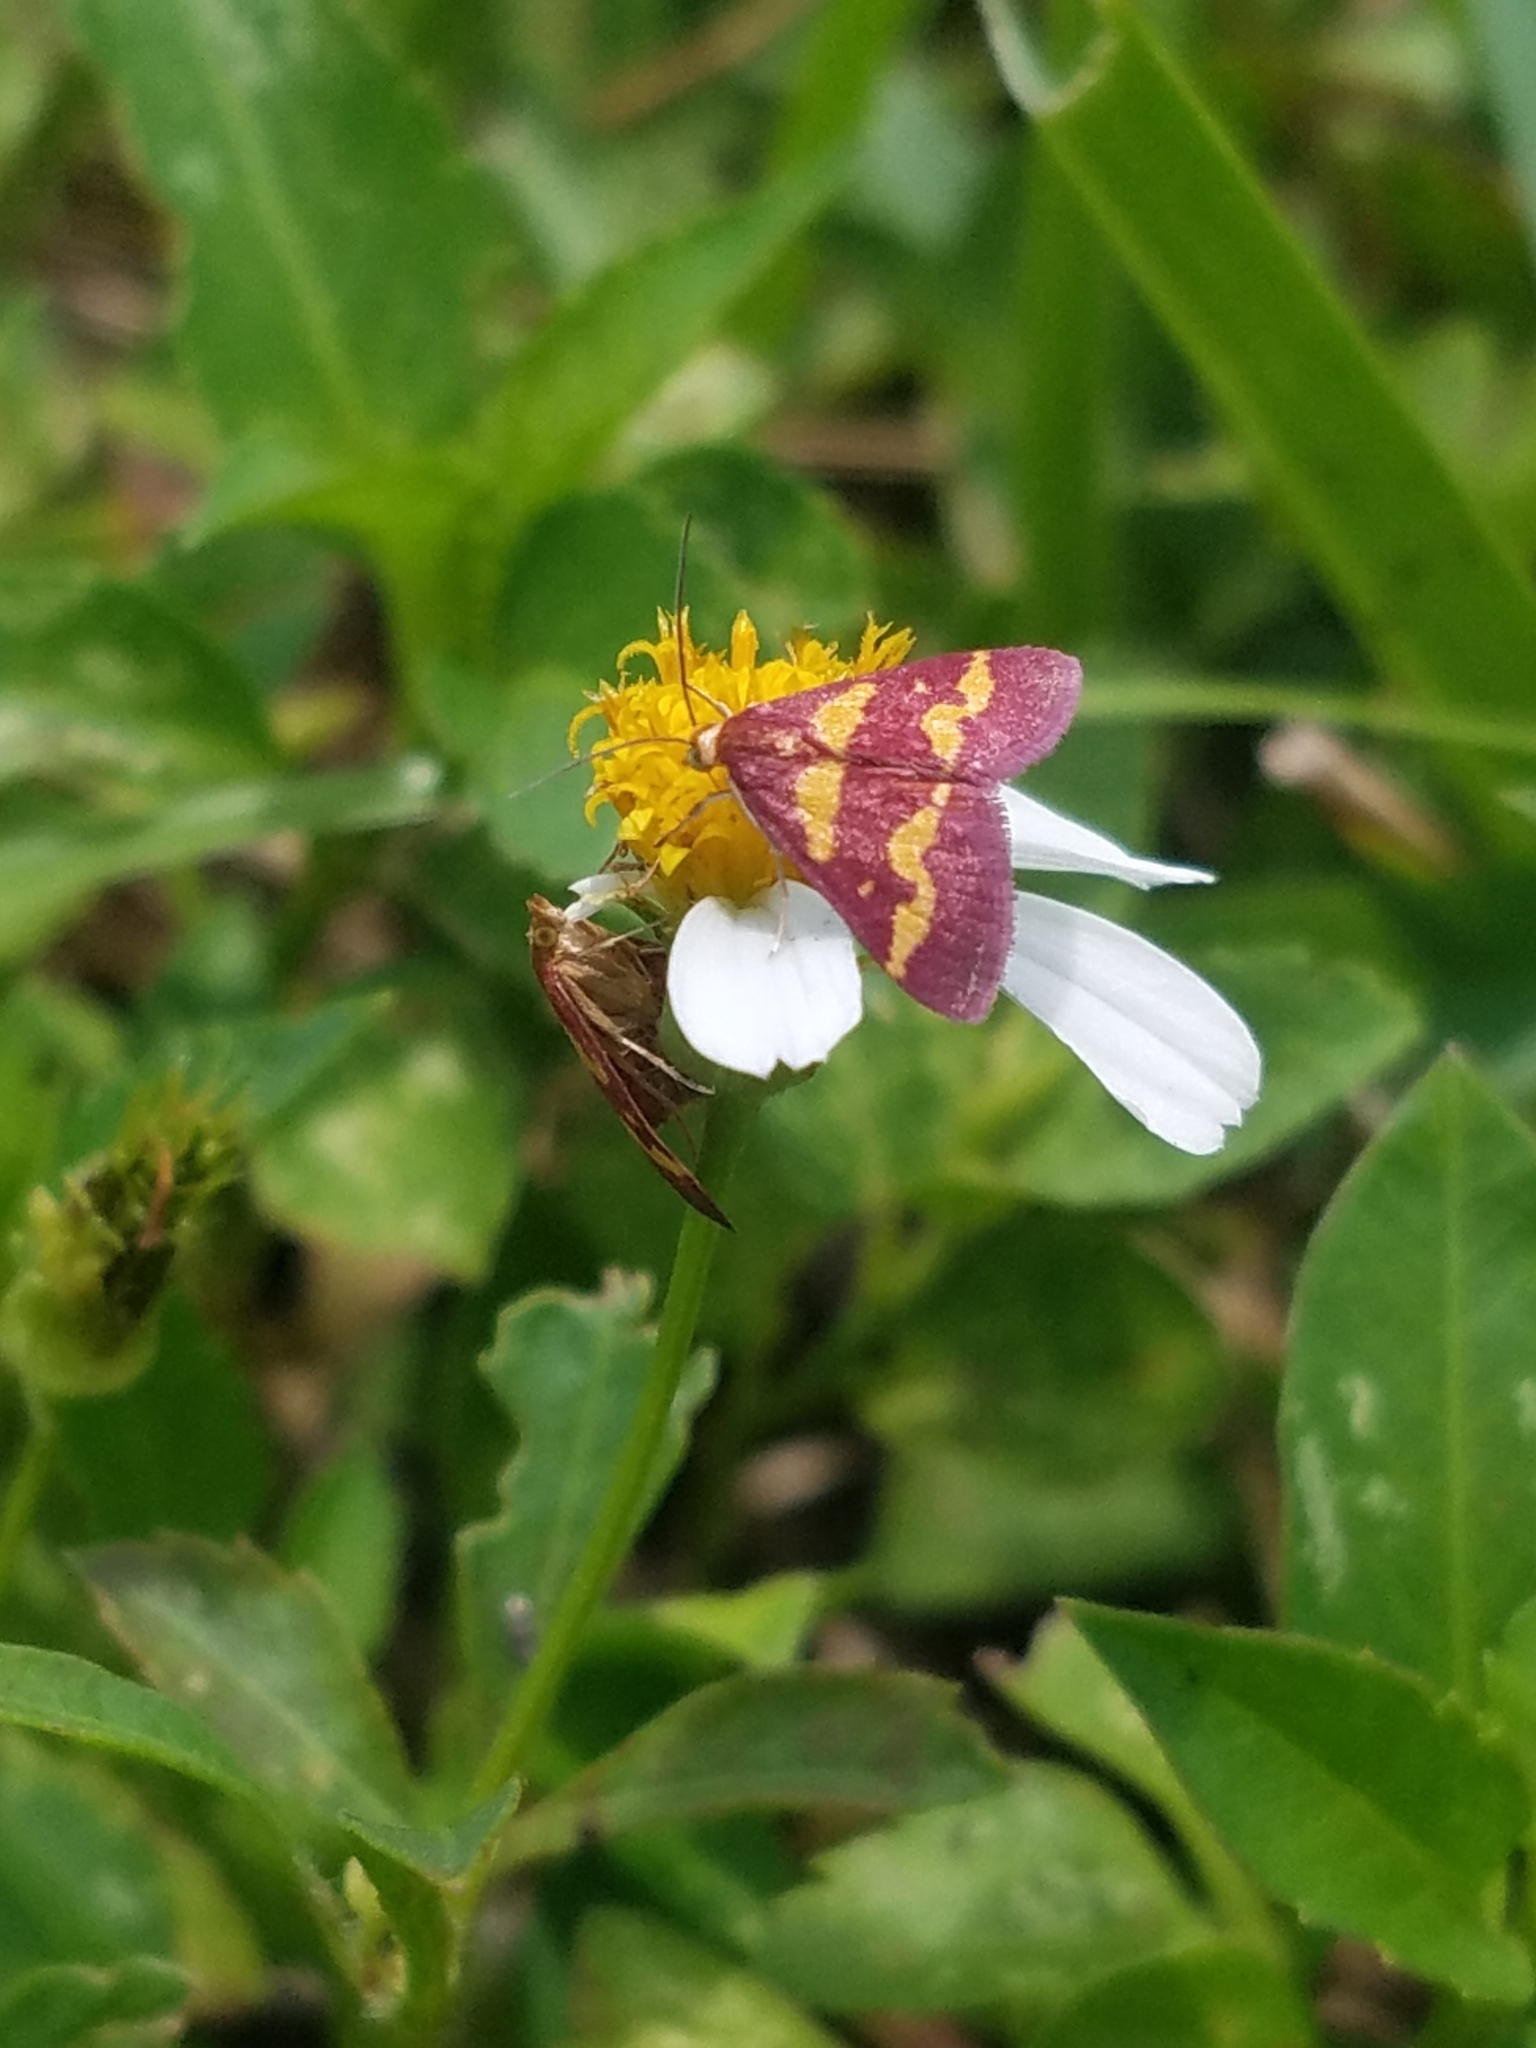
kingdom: Animalia
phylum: Arthropoda
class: Insecta
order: Lepidoptera
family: Crambidae
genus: Pyrausta
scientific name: Pyrausta tyralis
